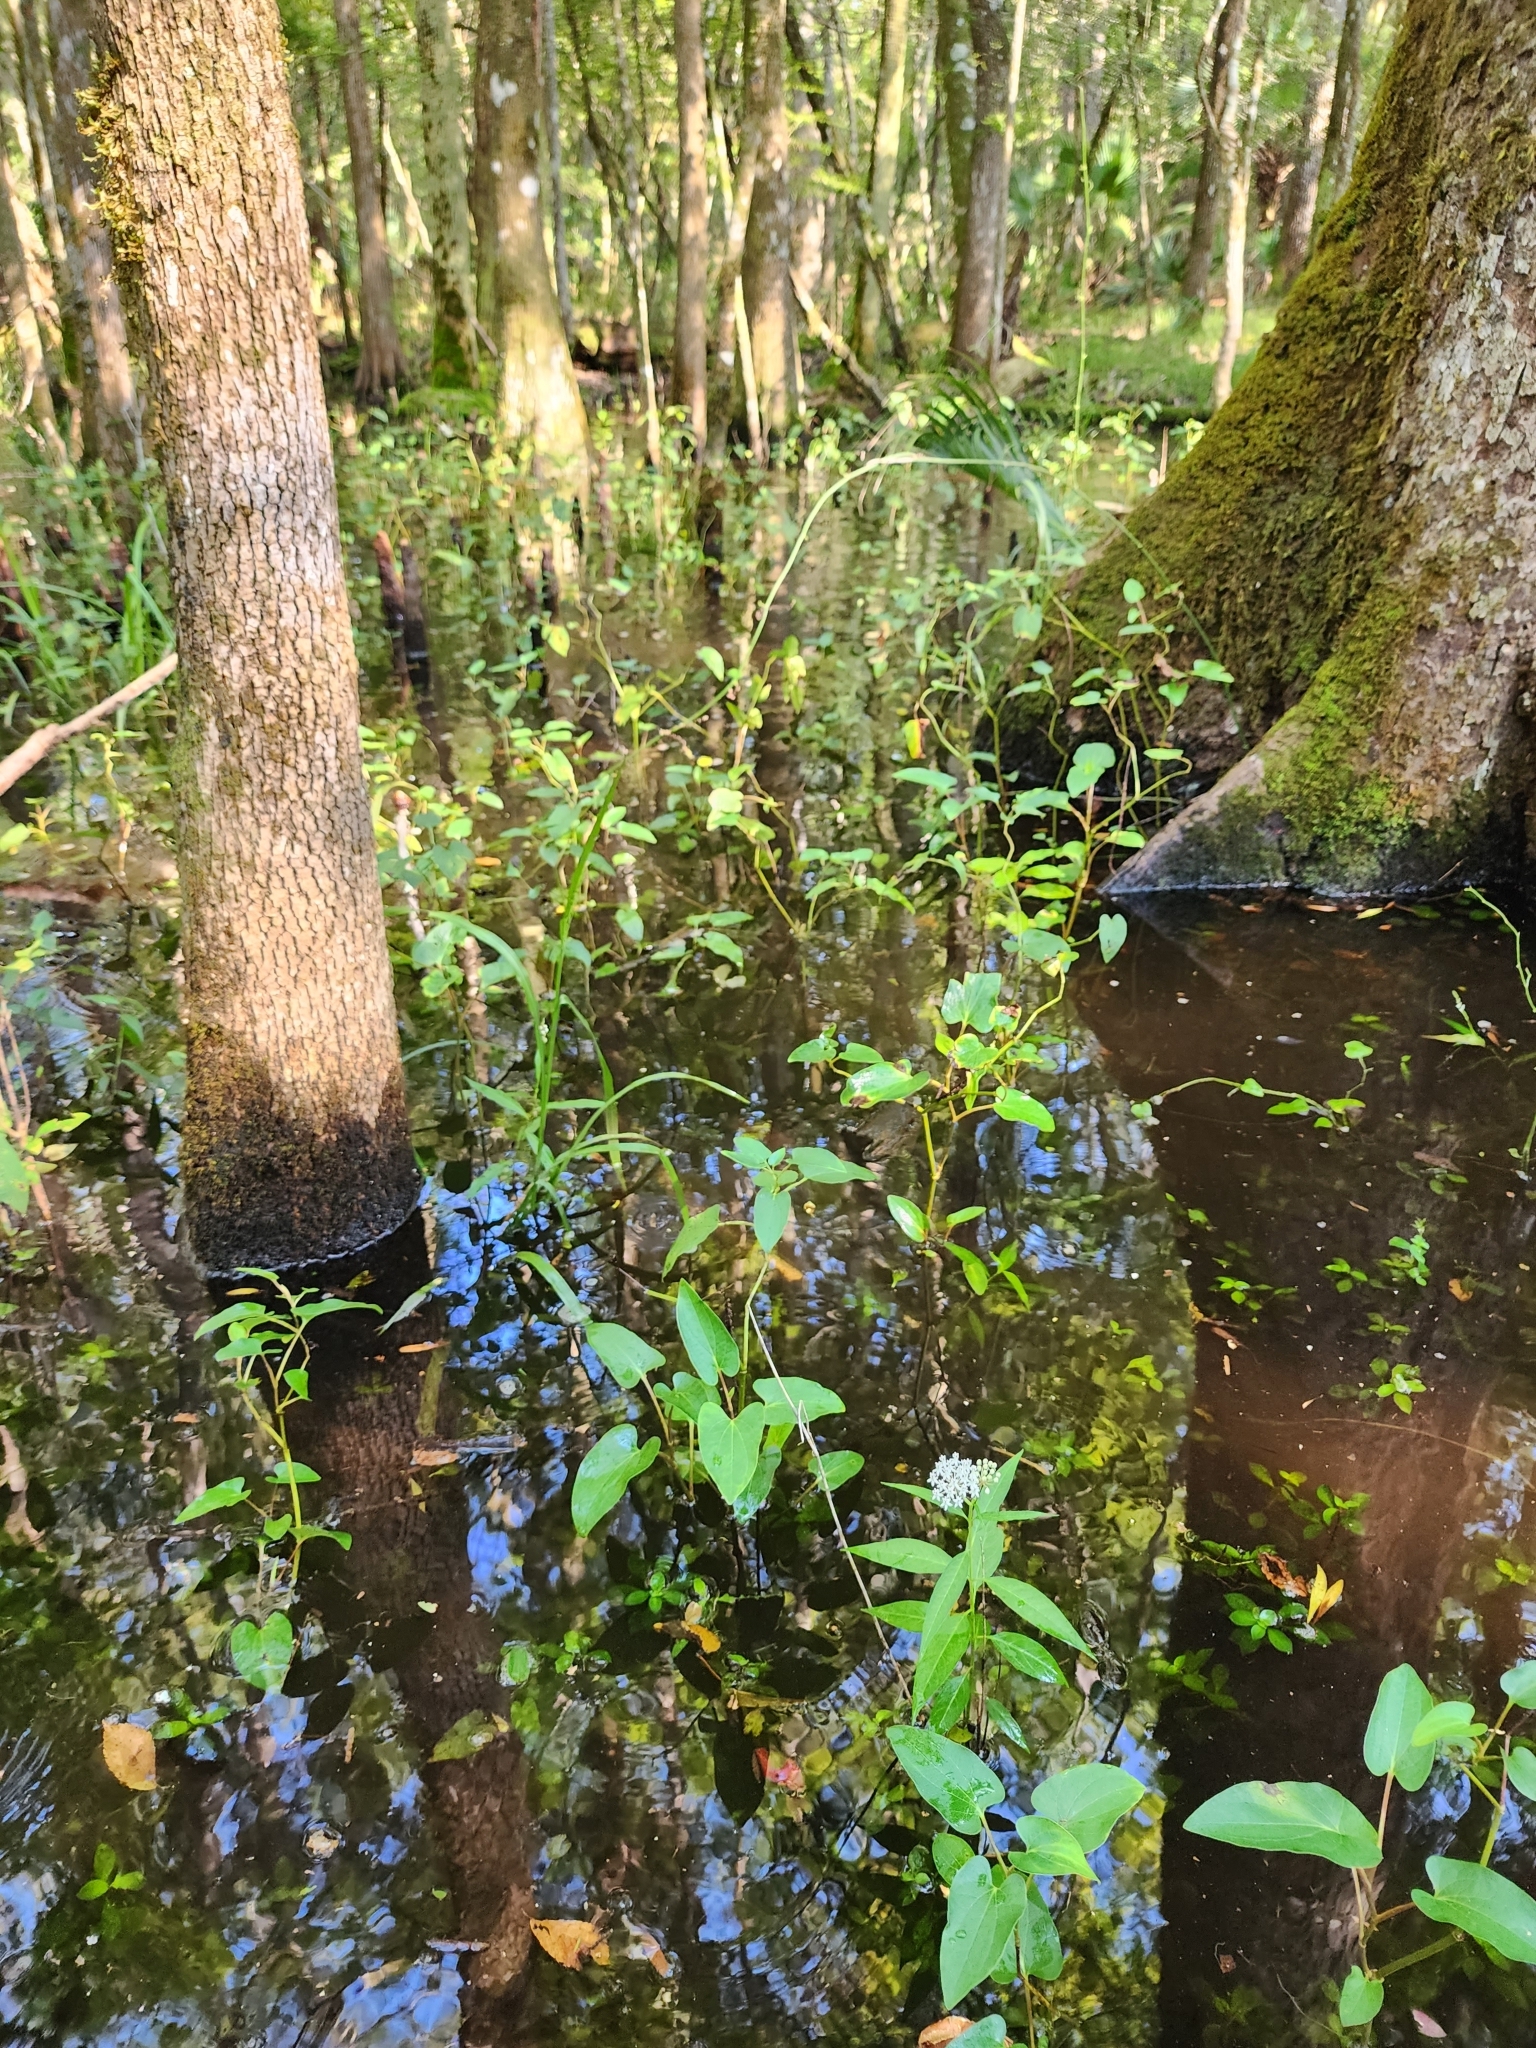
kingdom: Plantae
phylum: Tracheophyta
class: Magnoliopsida
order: Gentianales
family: Apocynaceae
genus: Asclepias
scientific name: Asclepias perennis
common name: Smooth-seed milkweed
